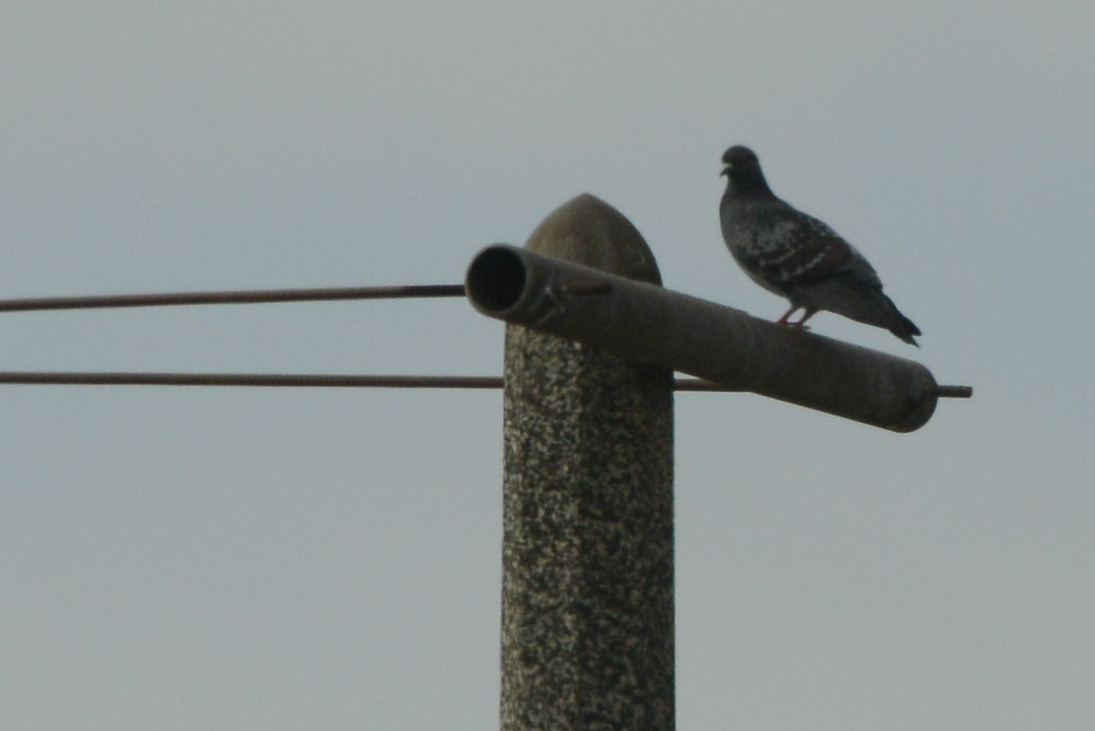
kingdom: Animalia
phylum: Chordata
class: Aves
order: Columbiformes
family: Columbidae
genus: Columba
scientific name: Columba livia
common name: Rock pigeon
